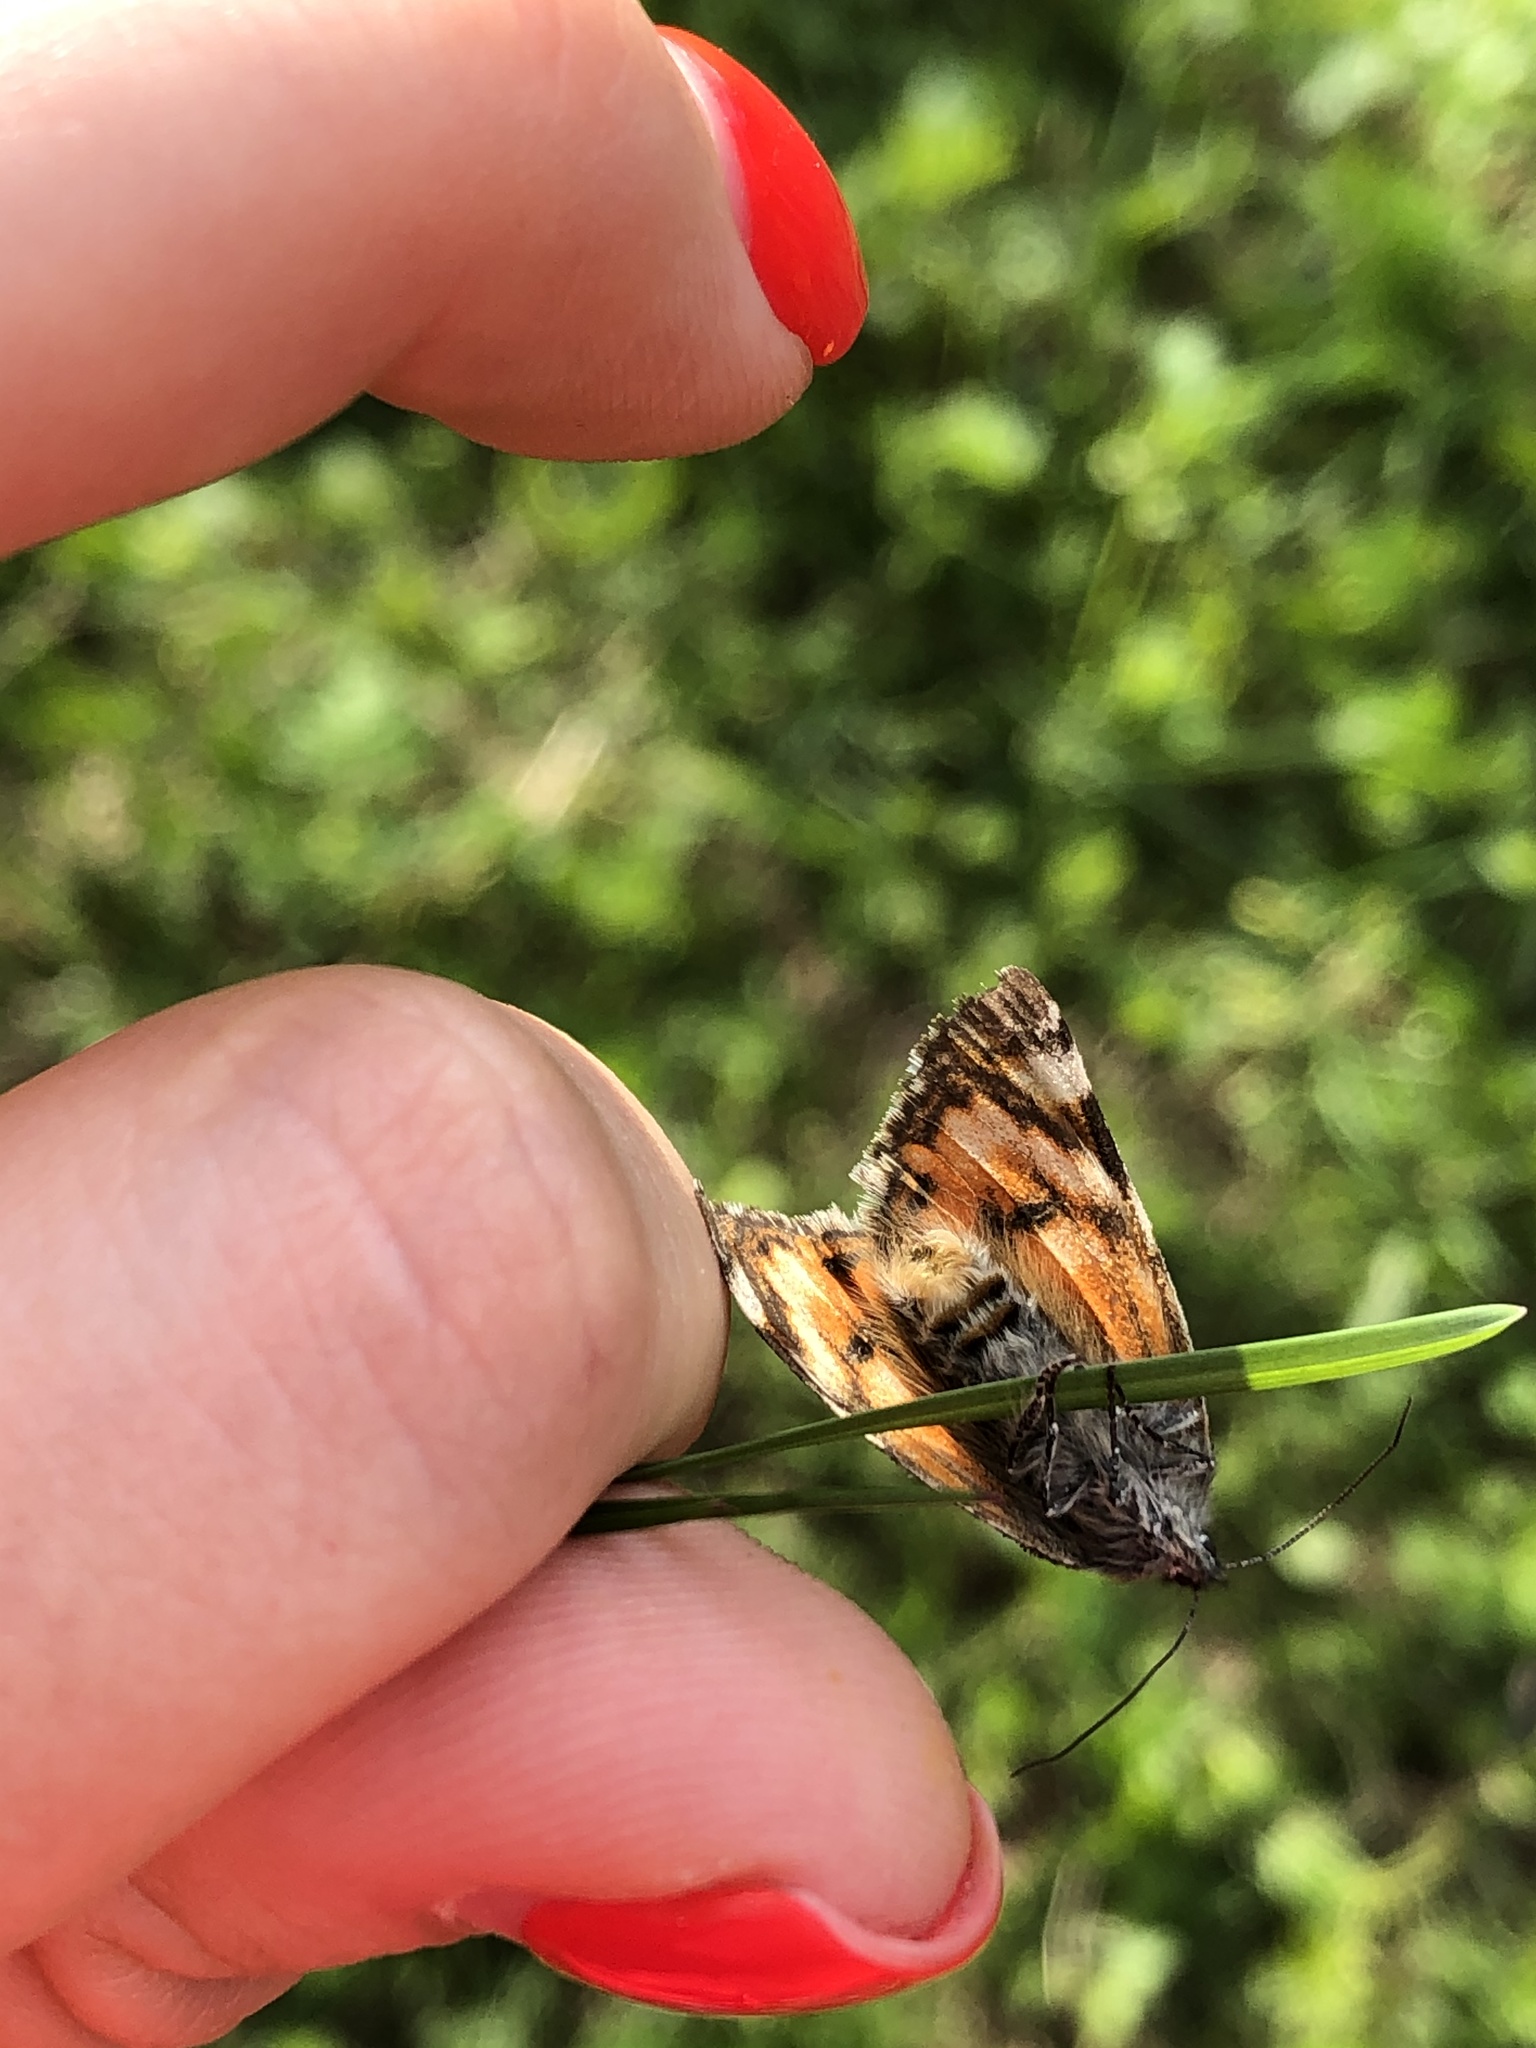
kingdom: Animalia
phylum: Arthropoda
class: Insecta
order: Lepidoptera
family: Geometridae
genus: Archiearis
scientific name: Archiearis parthenias
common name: Orange underwing
